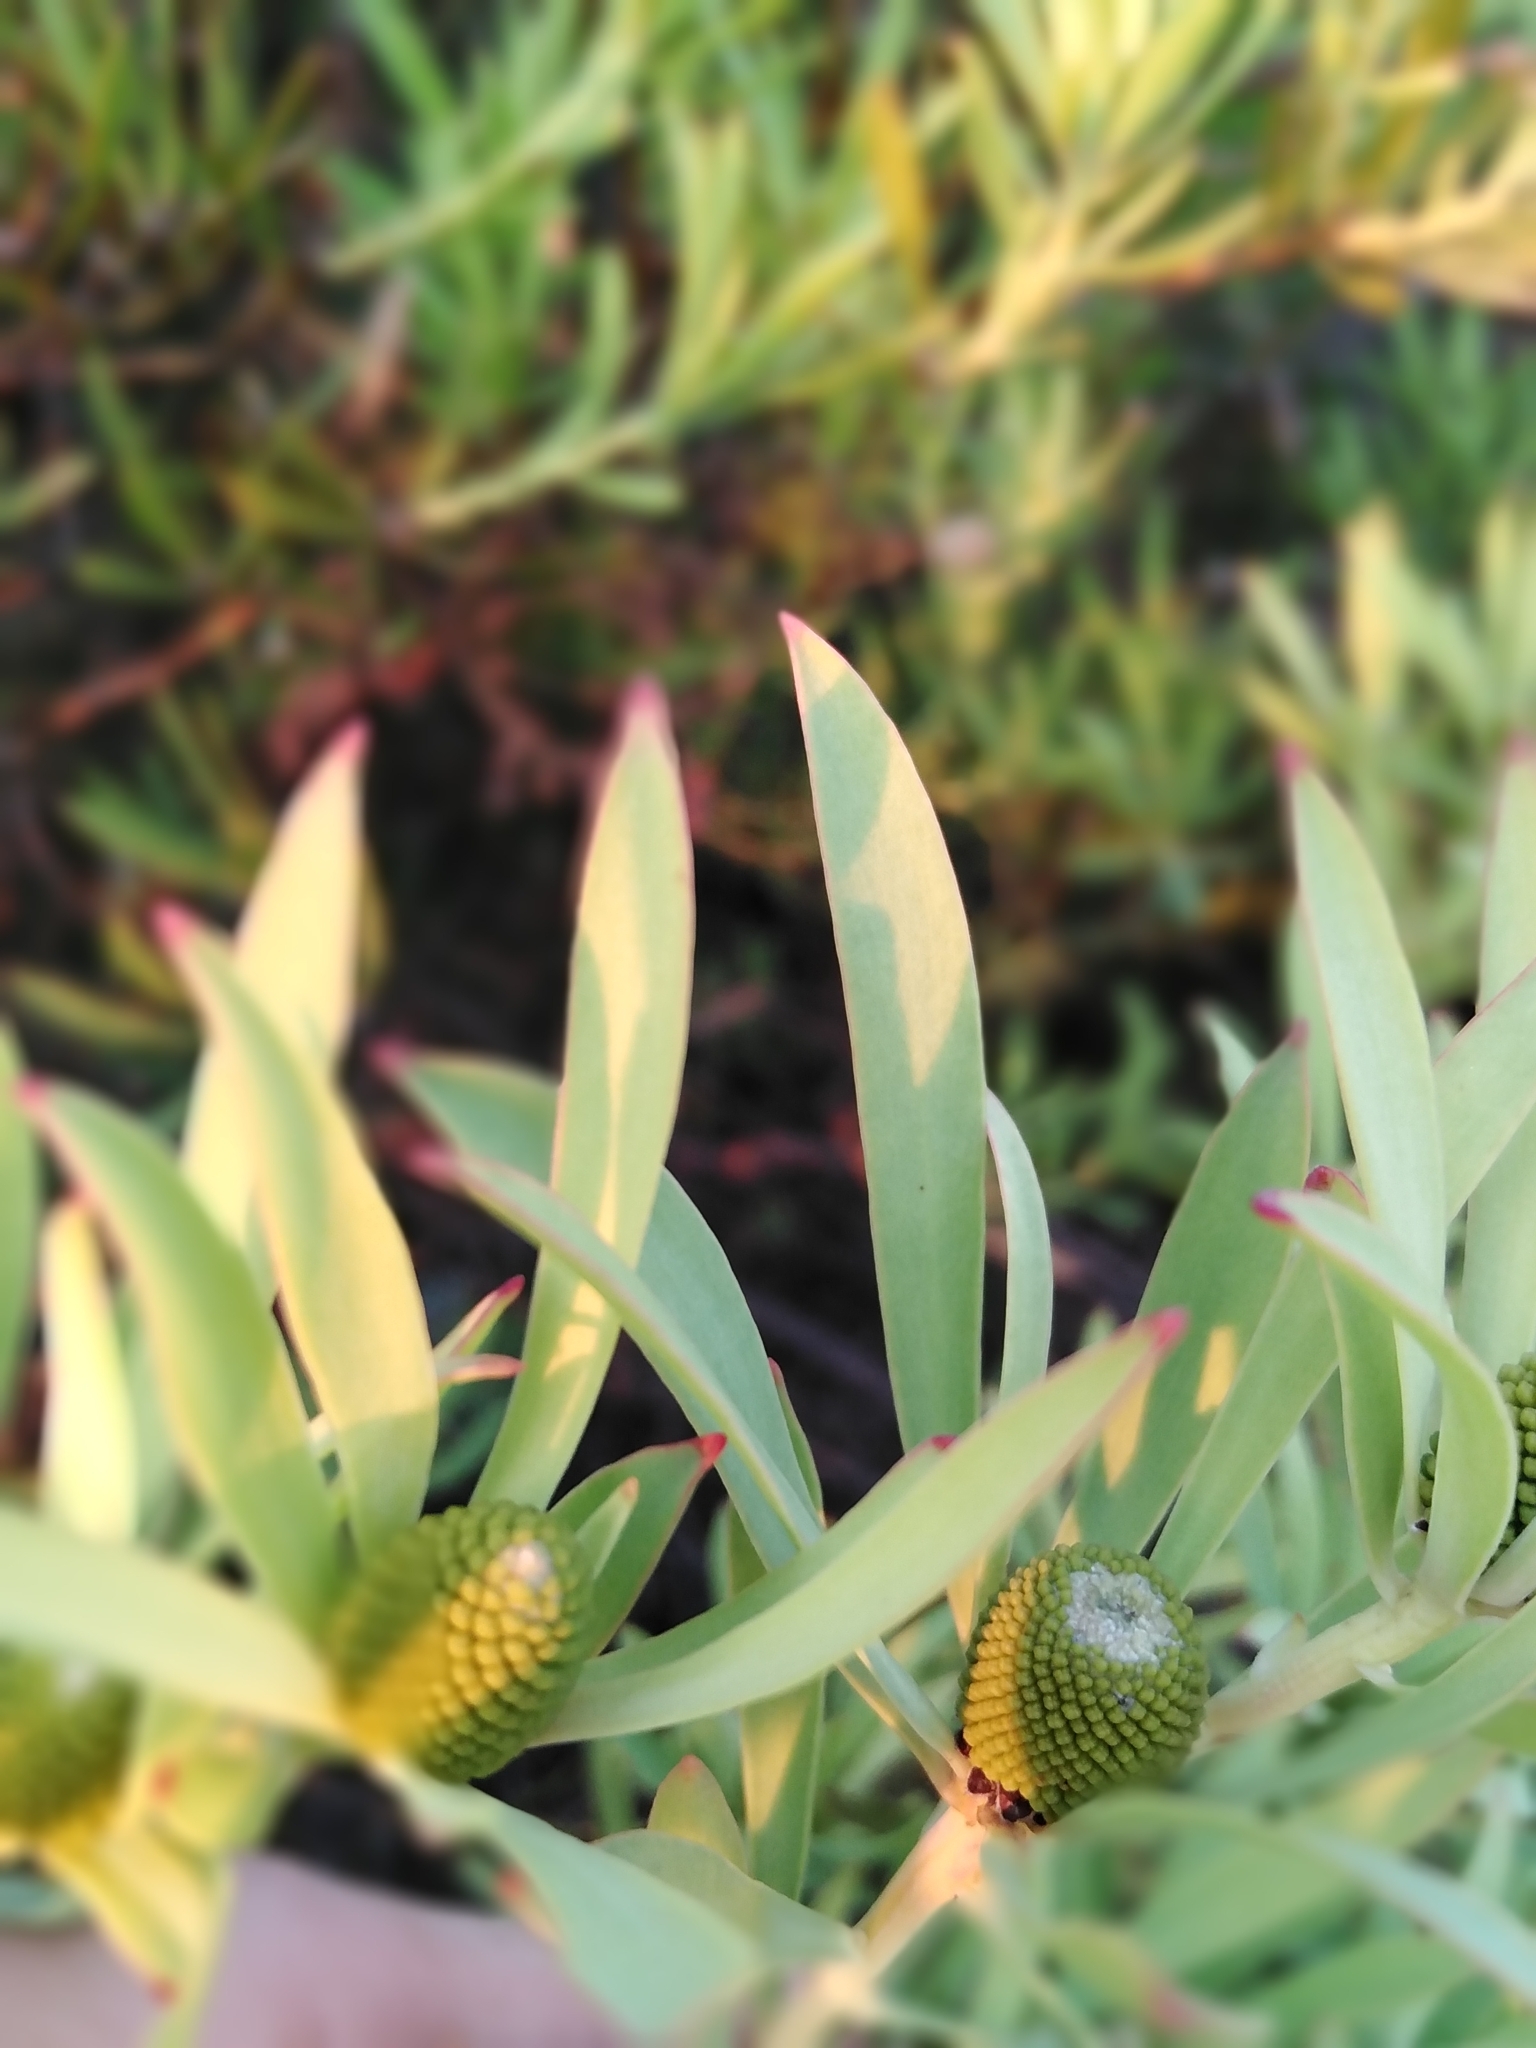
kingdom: Plantae
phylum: Tracheophyta
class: Magnoliopsida
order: Proteales
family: Proteaceae
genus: Leucadendron
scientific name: Leucadendron salignum
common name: Common sunshine conebush
